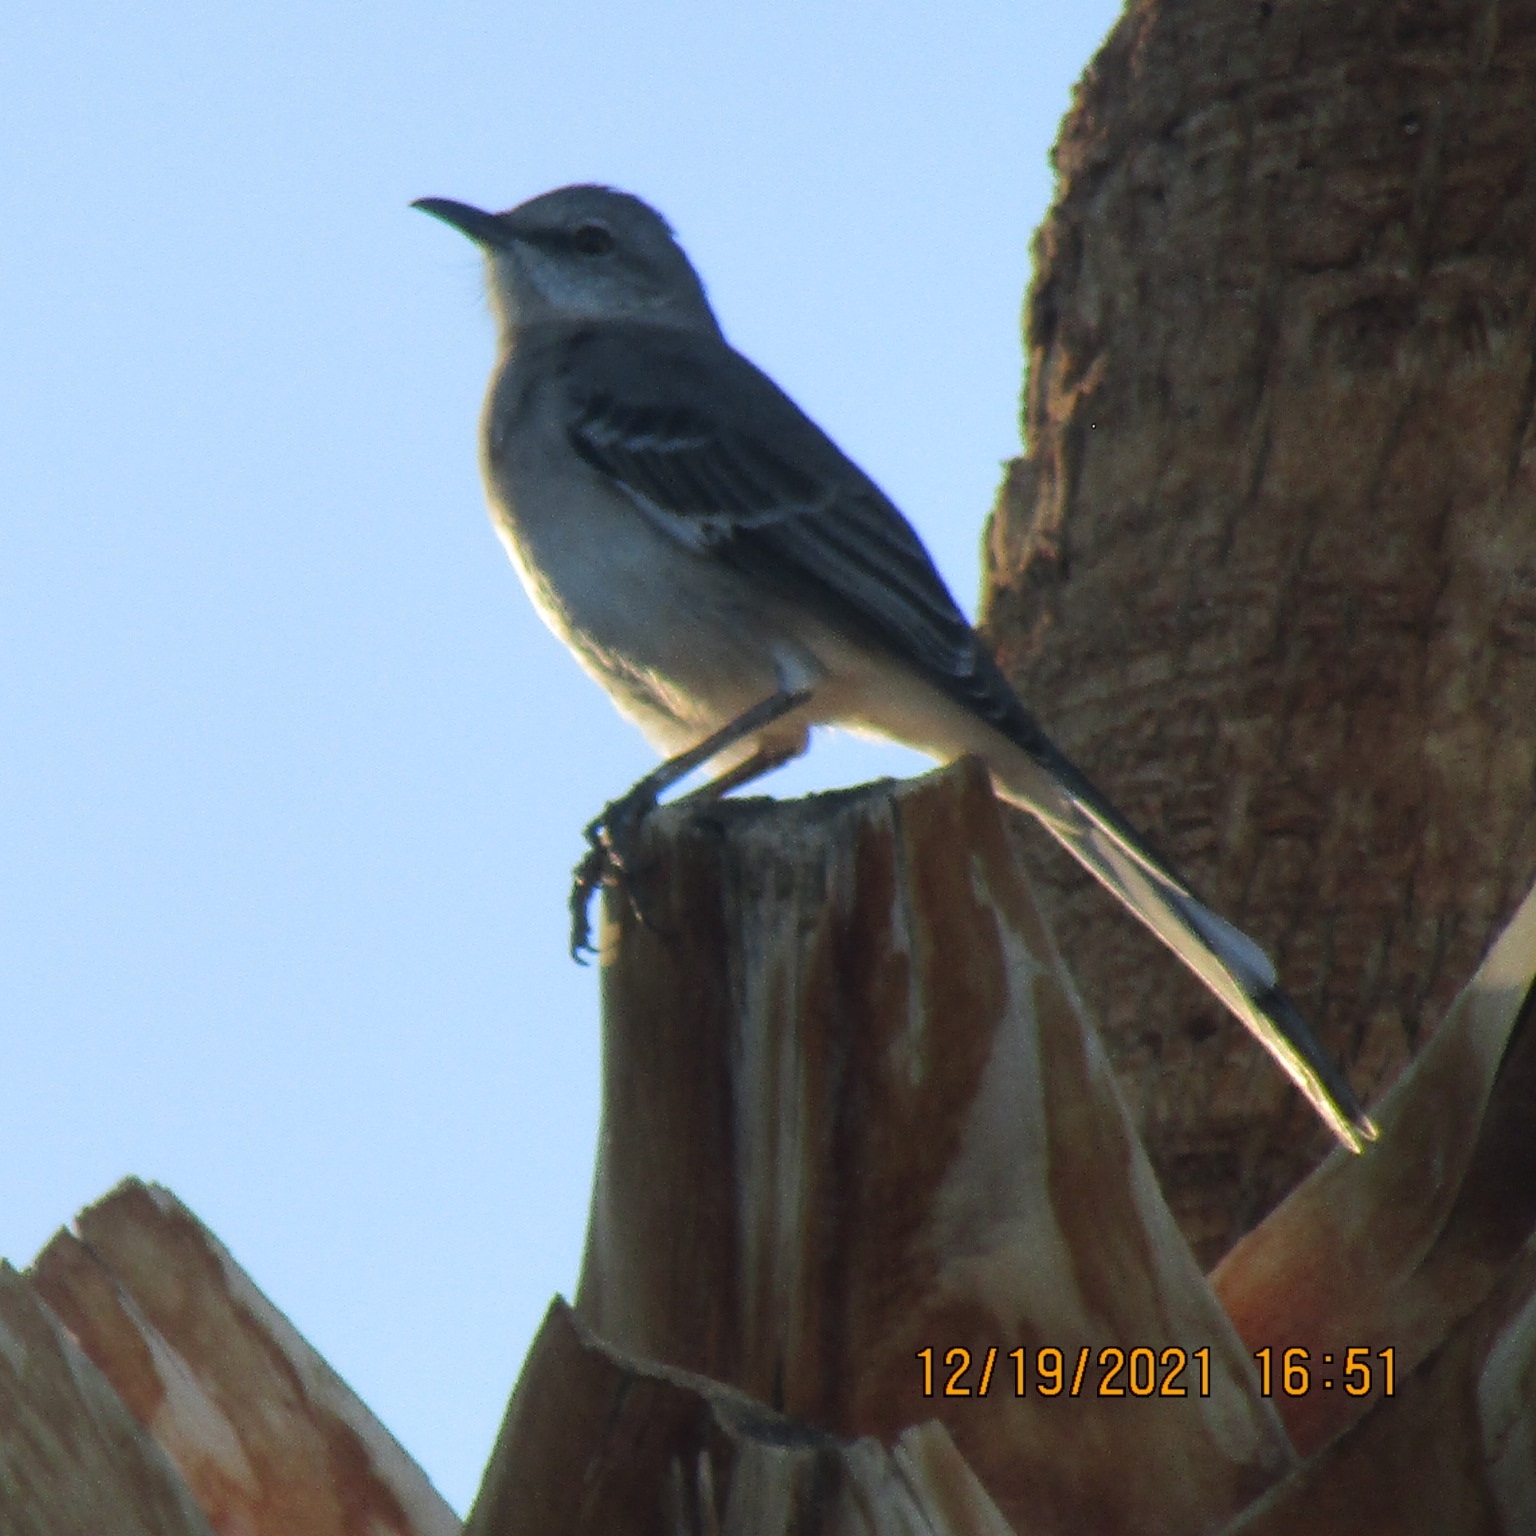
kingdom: Animalia
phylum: Chordata
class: Aves
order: Passeriformes
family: Mimidae
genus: Mimus
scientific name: Mimus polyglottos
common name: Northern mockingbird
